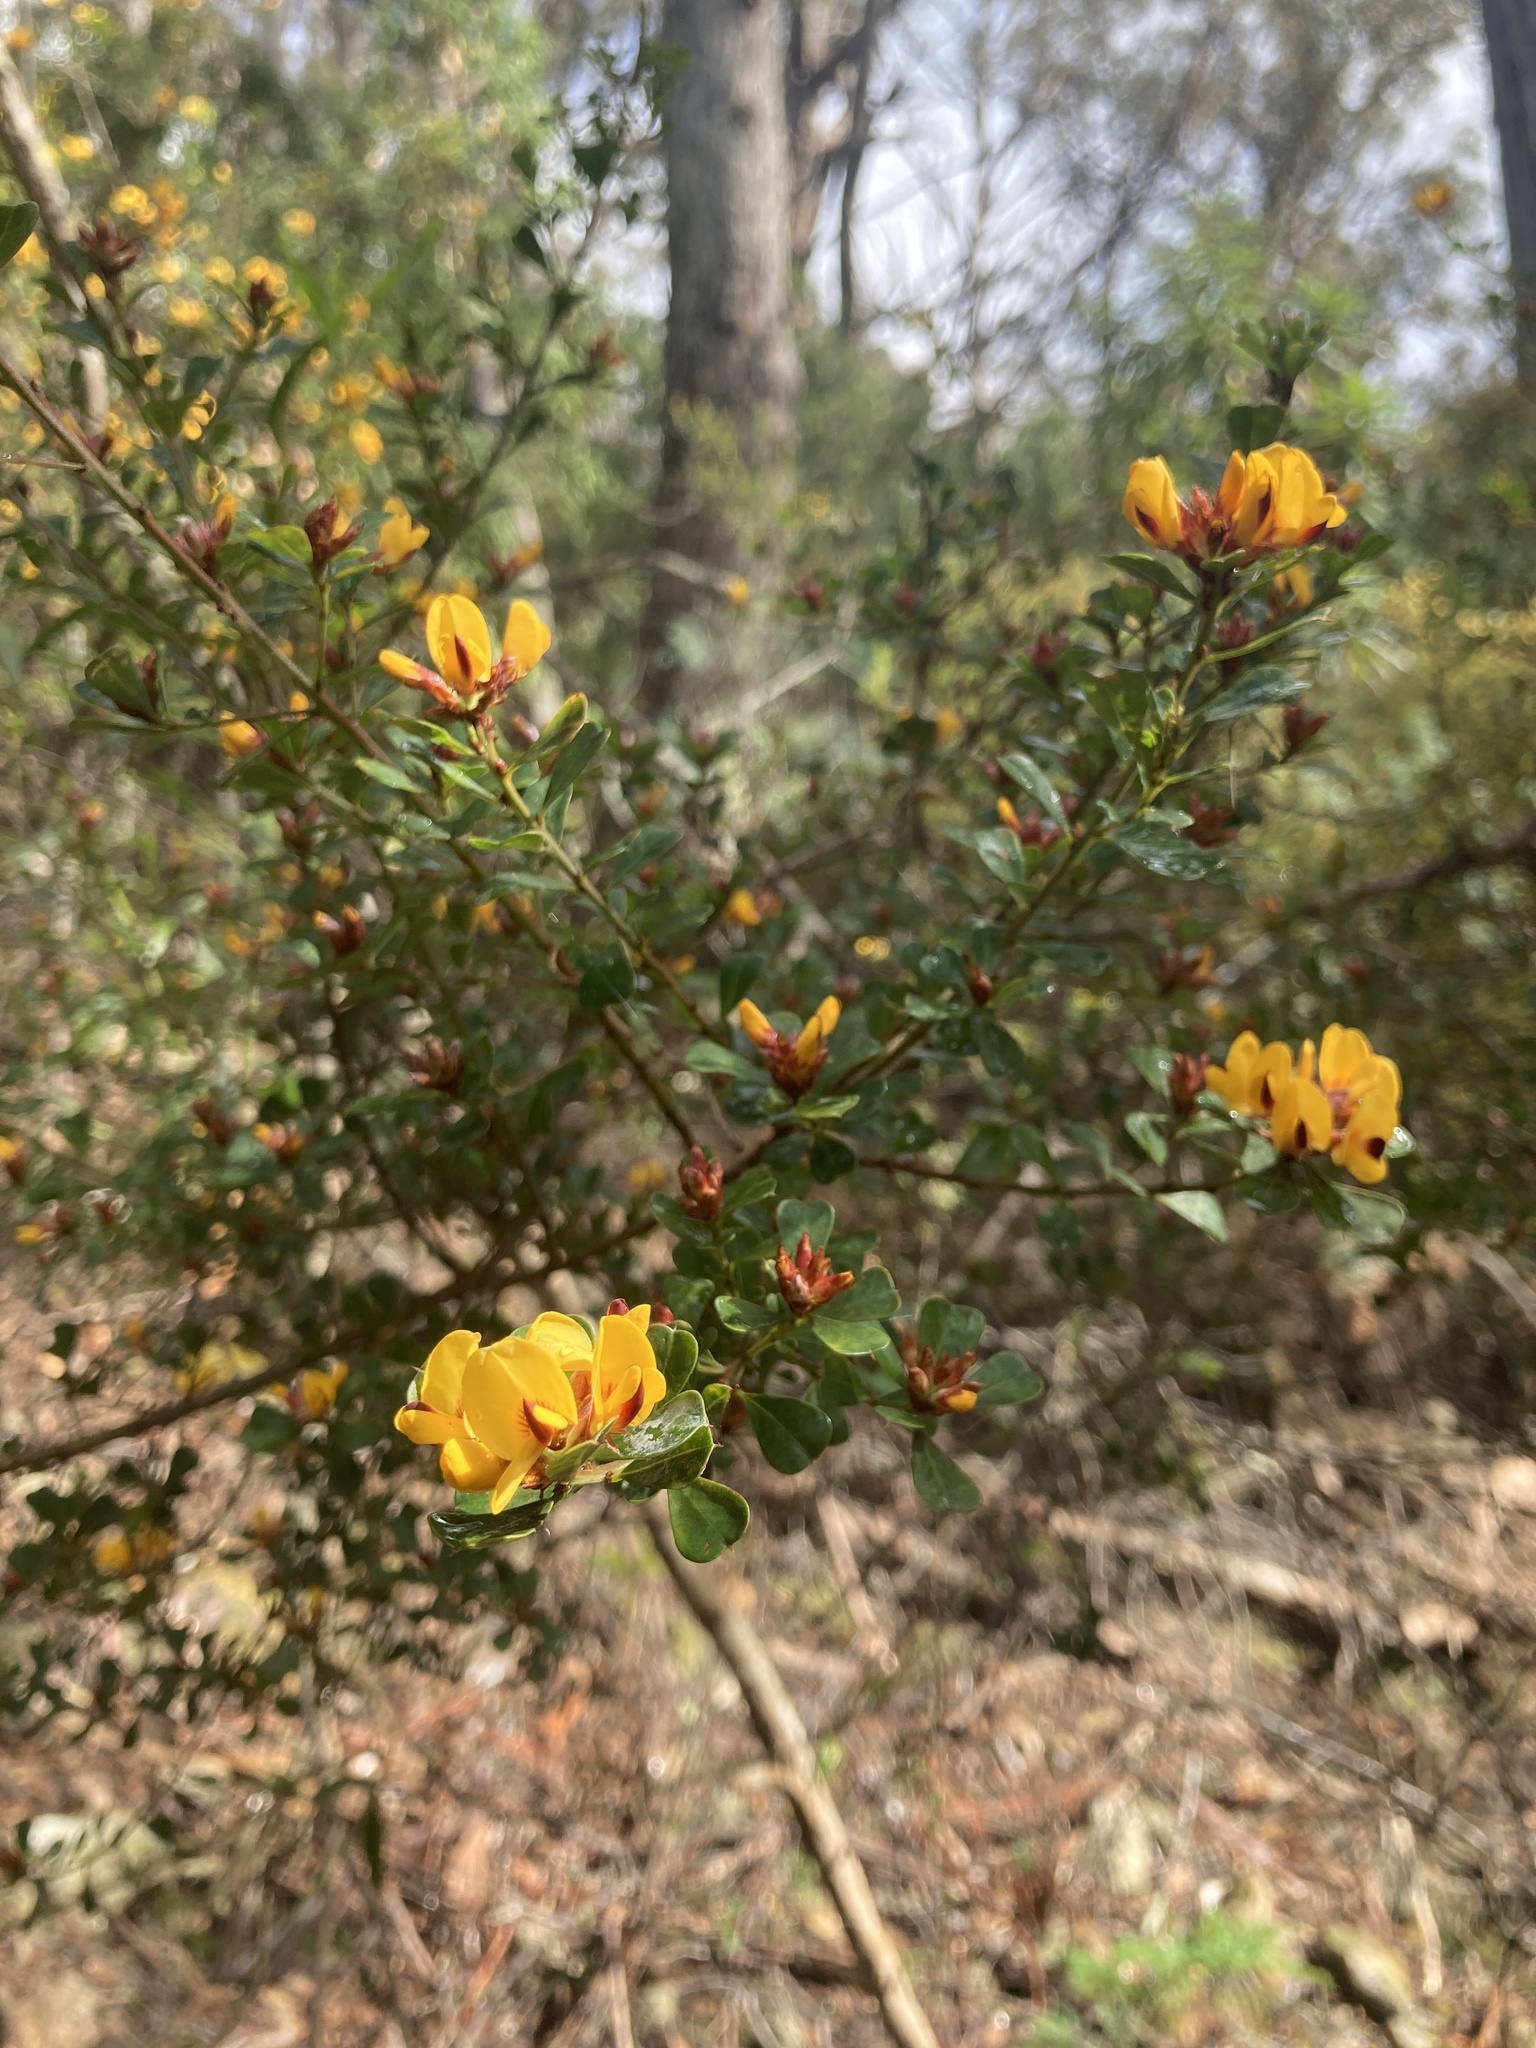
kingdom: Plantae
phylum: Tracheophyta
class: Magnoliopsida
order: Fabales
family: Fabaceae
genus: Pultenaea
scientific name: Pultenaea daphnoides
